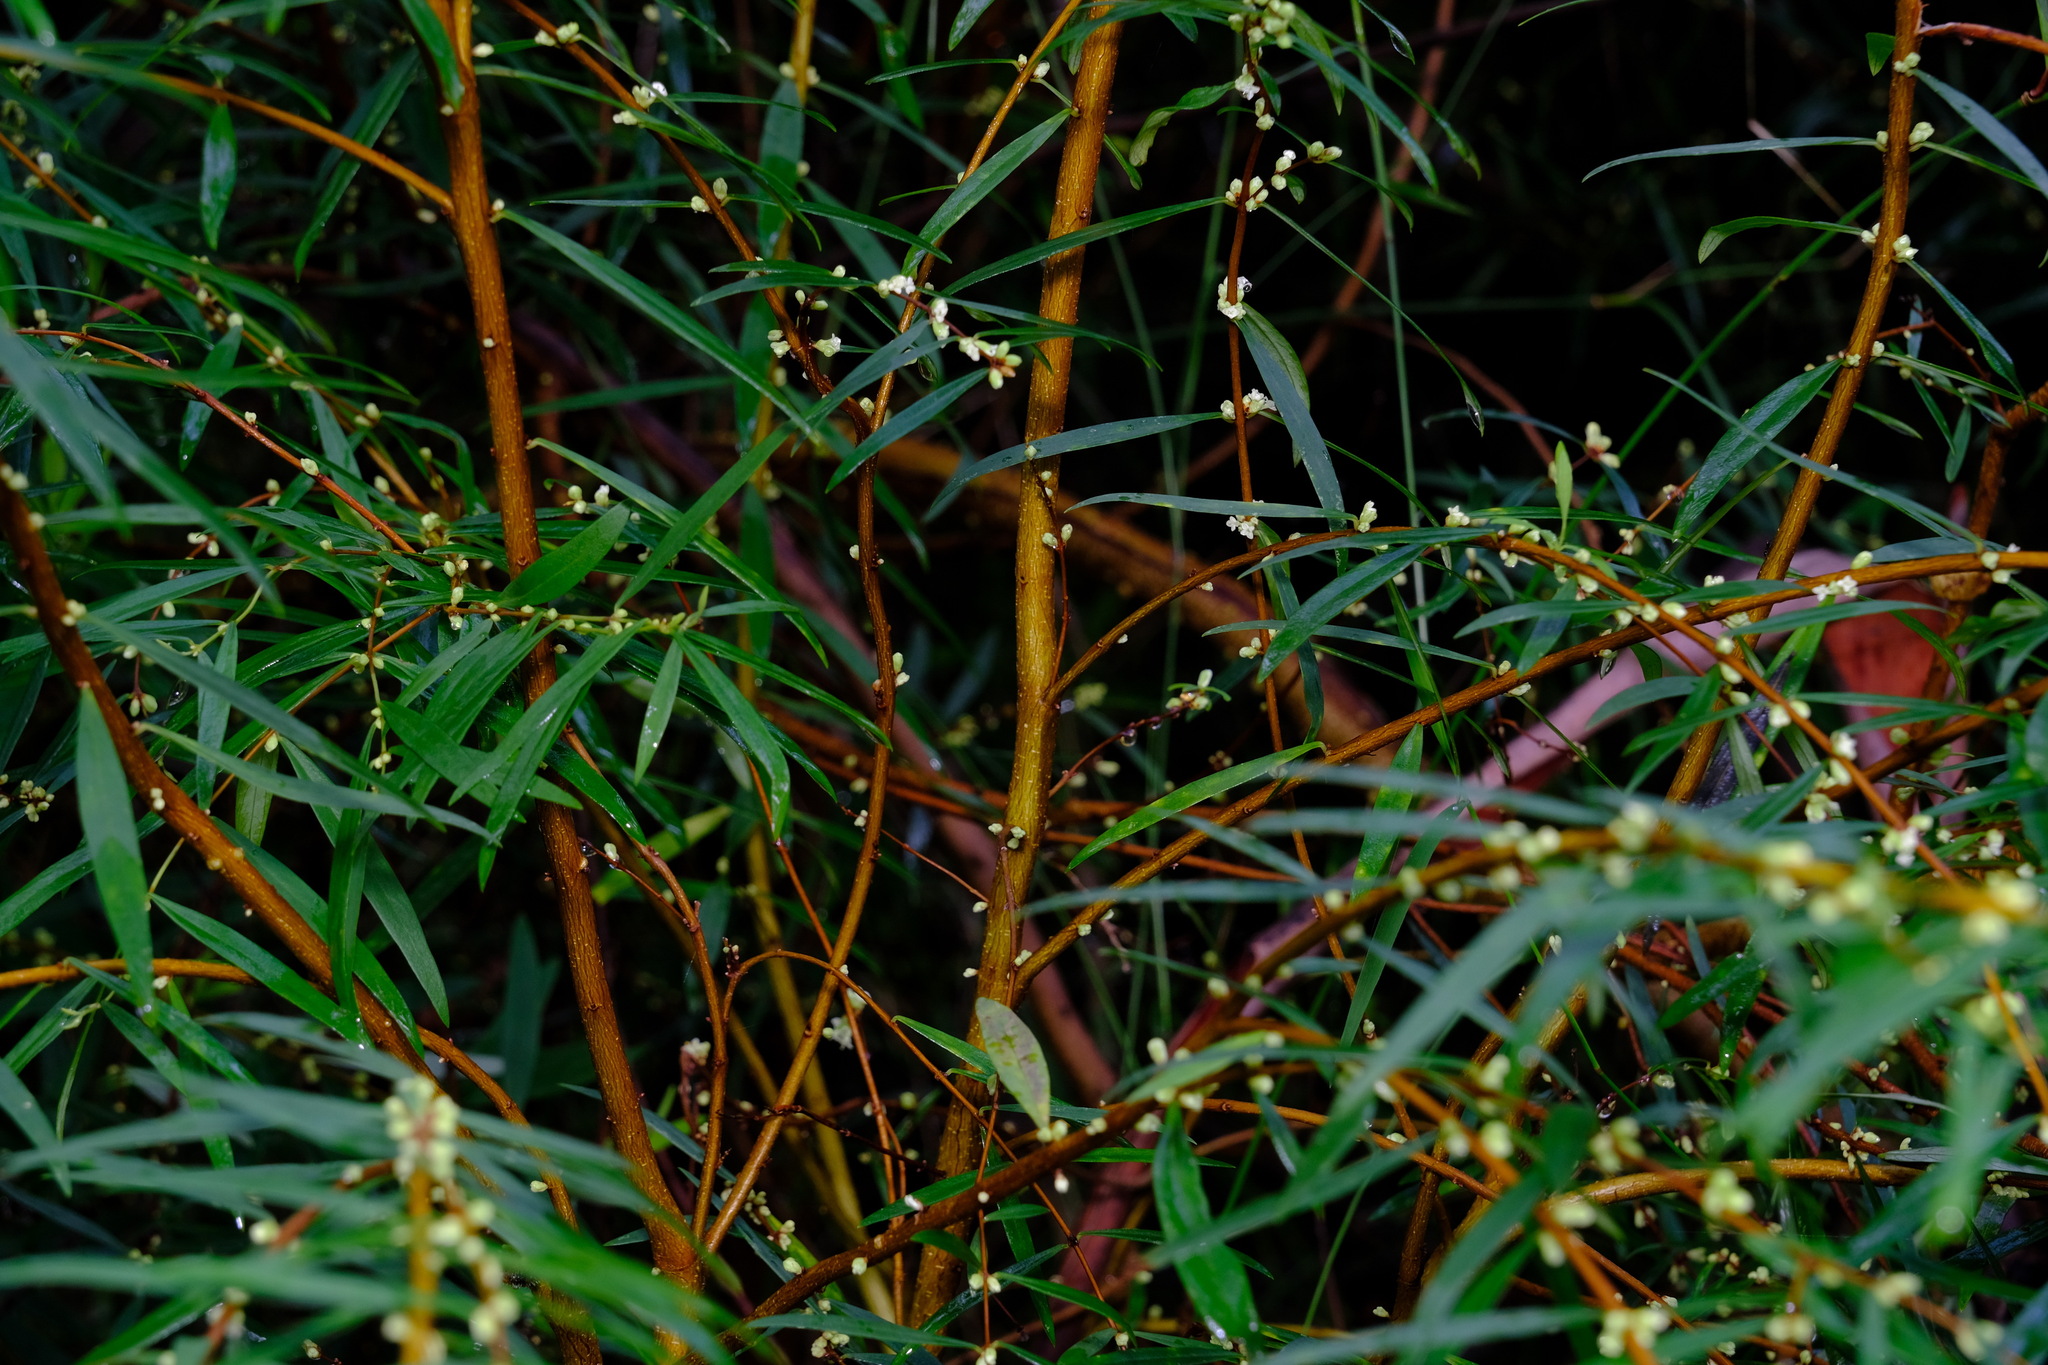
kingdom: Plantae
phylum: Tracheophyta
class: Magnoliopsida
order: Malvales
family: Thymelaeaceae
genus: Pimelea
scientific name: Pimelea axiflora
